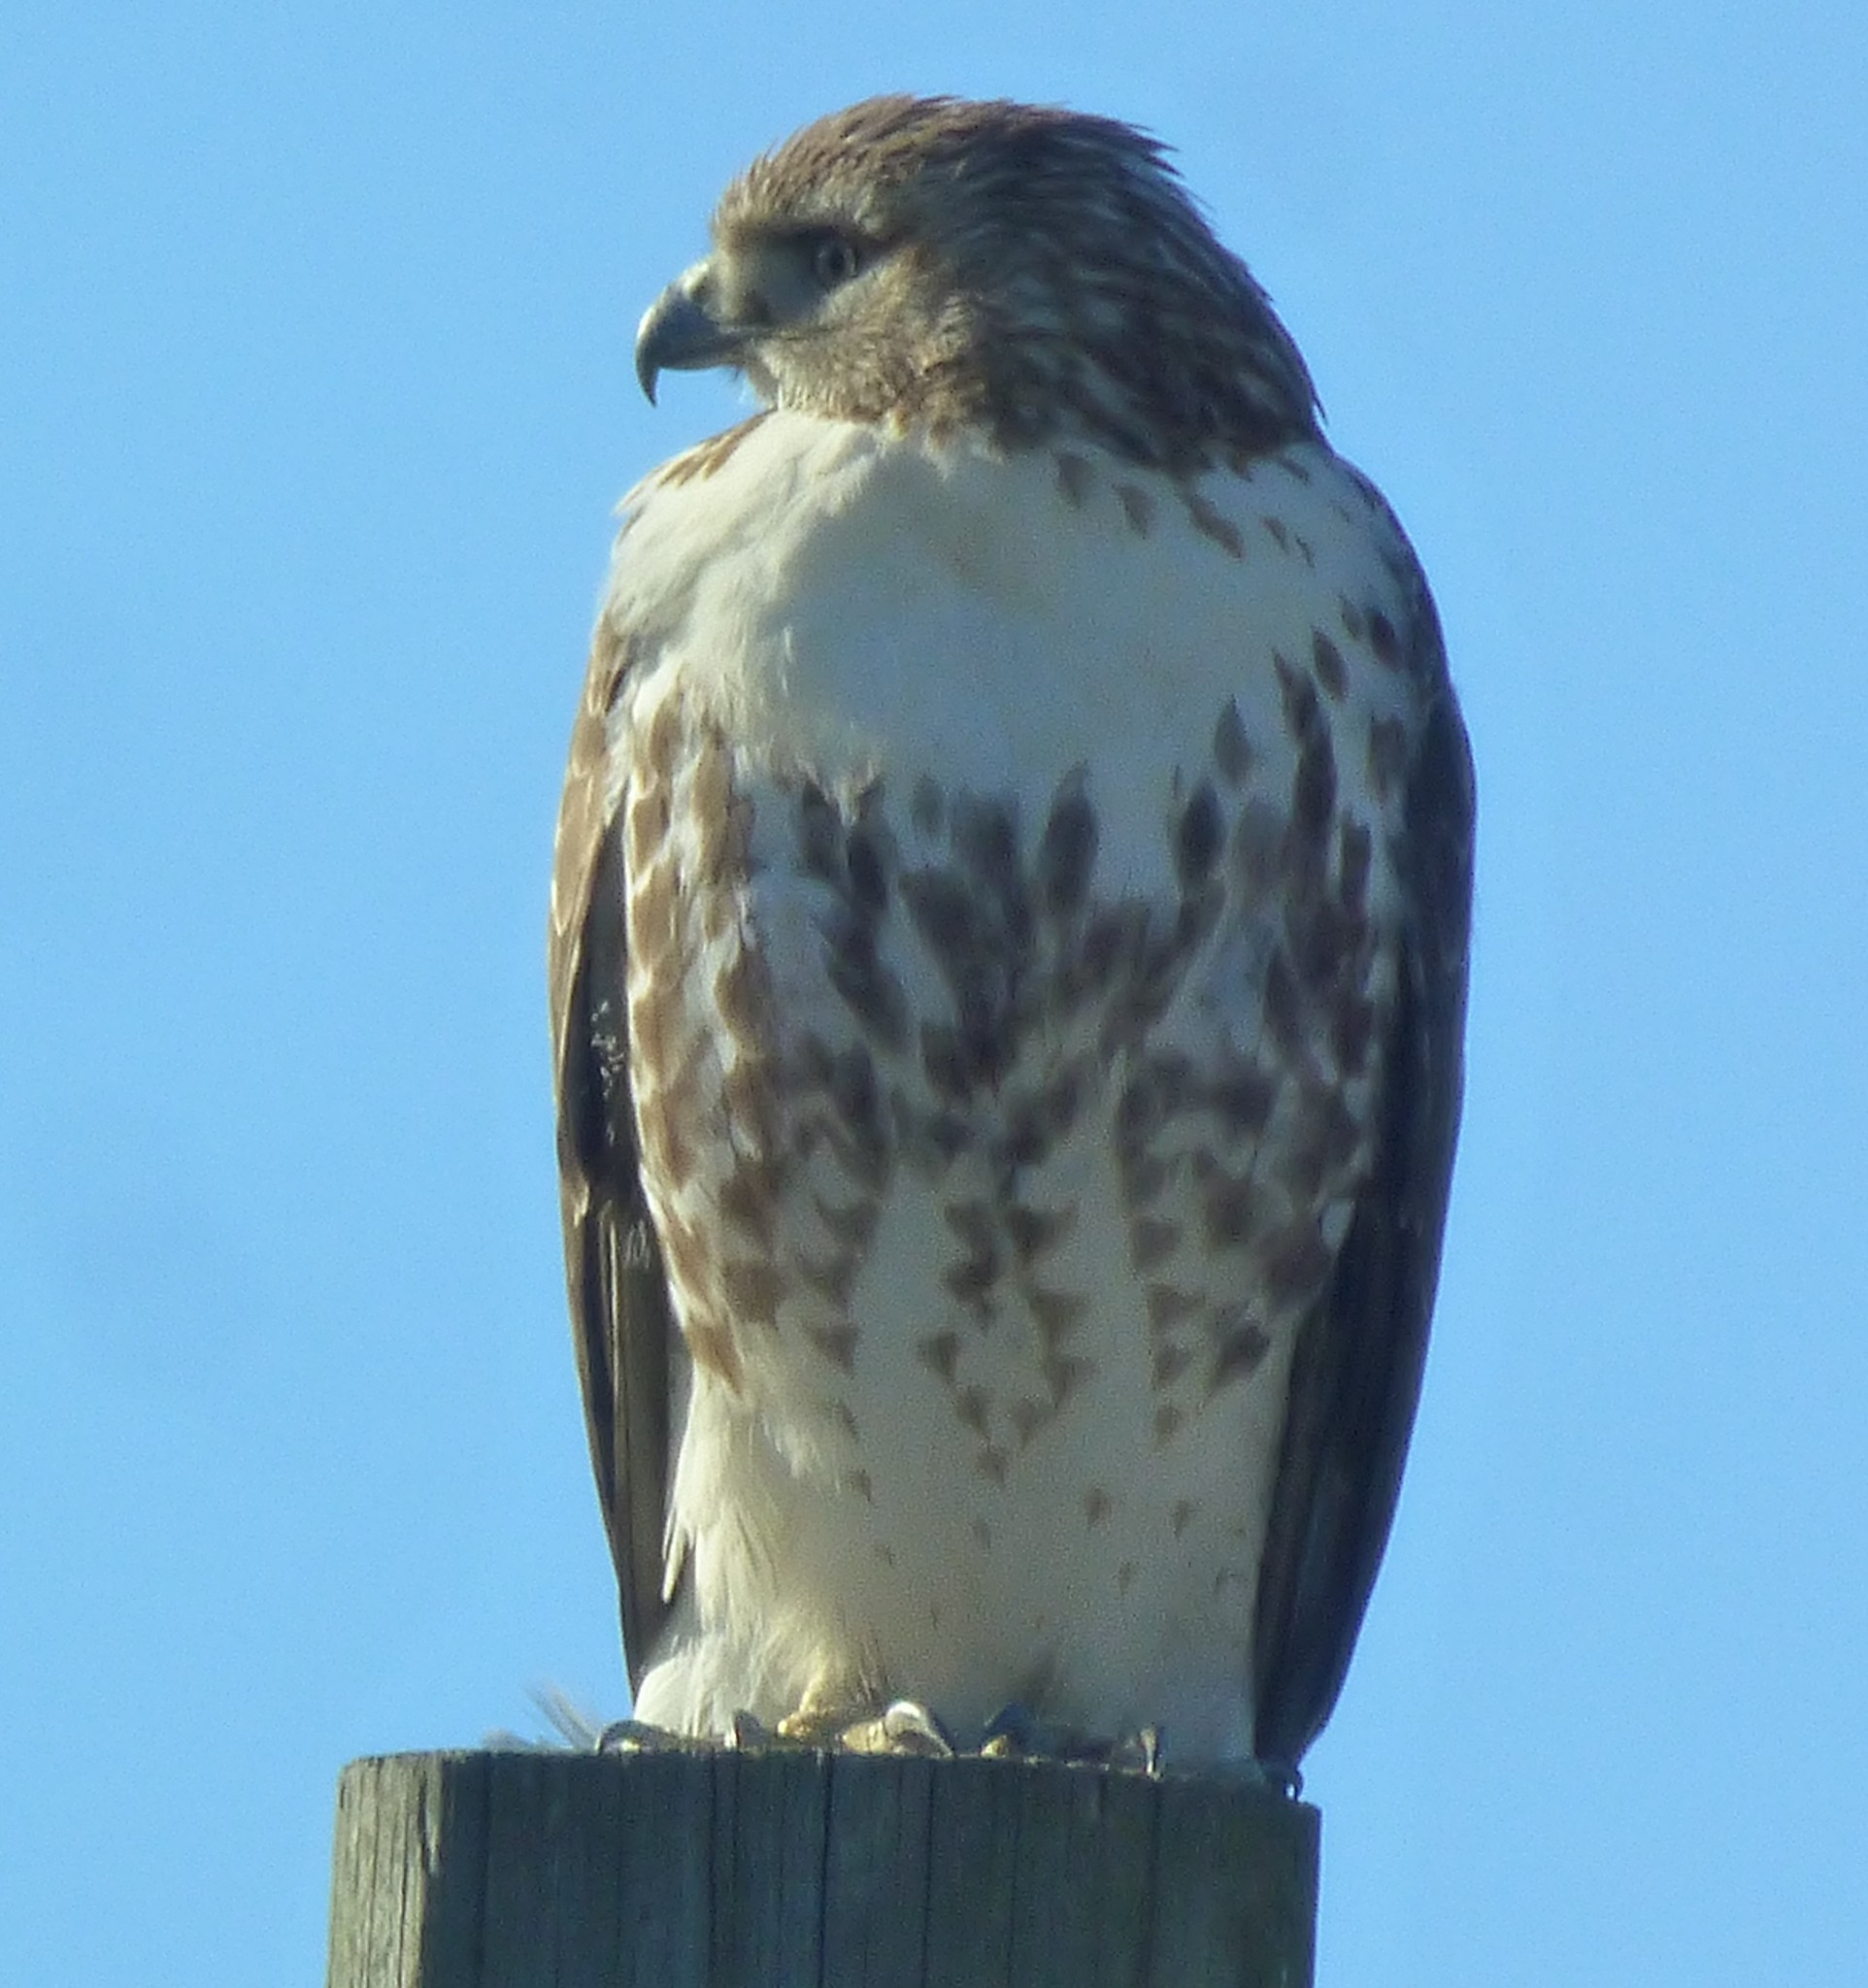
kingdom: Animalia
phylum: Chordata
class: Aves
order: Accipitriformes
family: Accipitridae
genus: Buteo
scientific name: Buteo jamaicensis
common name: Red-tailed hawk
